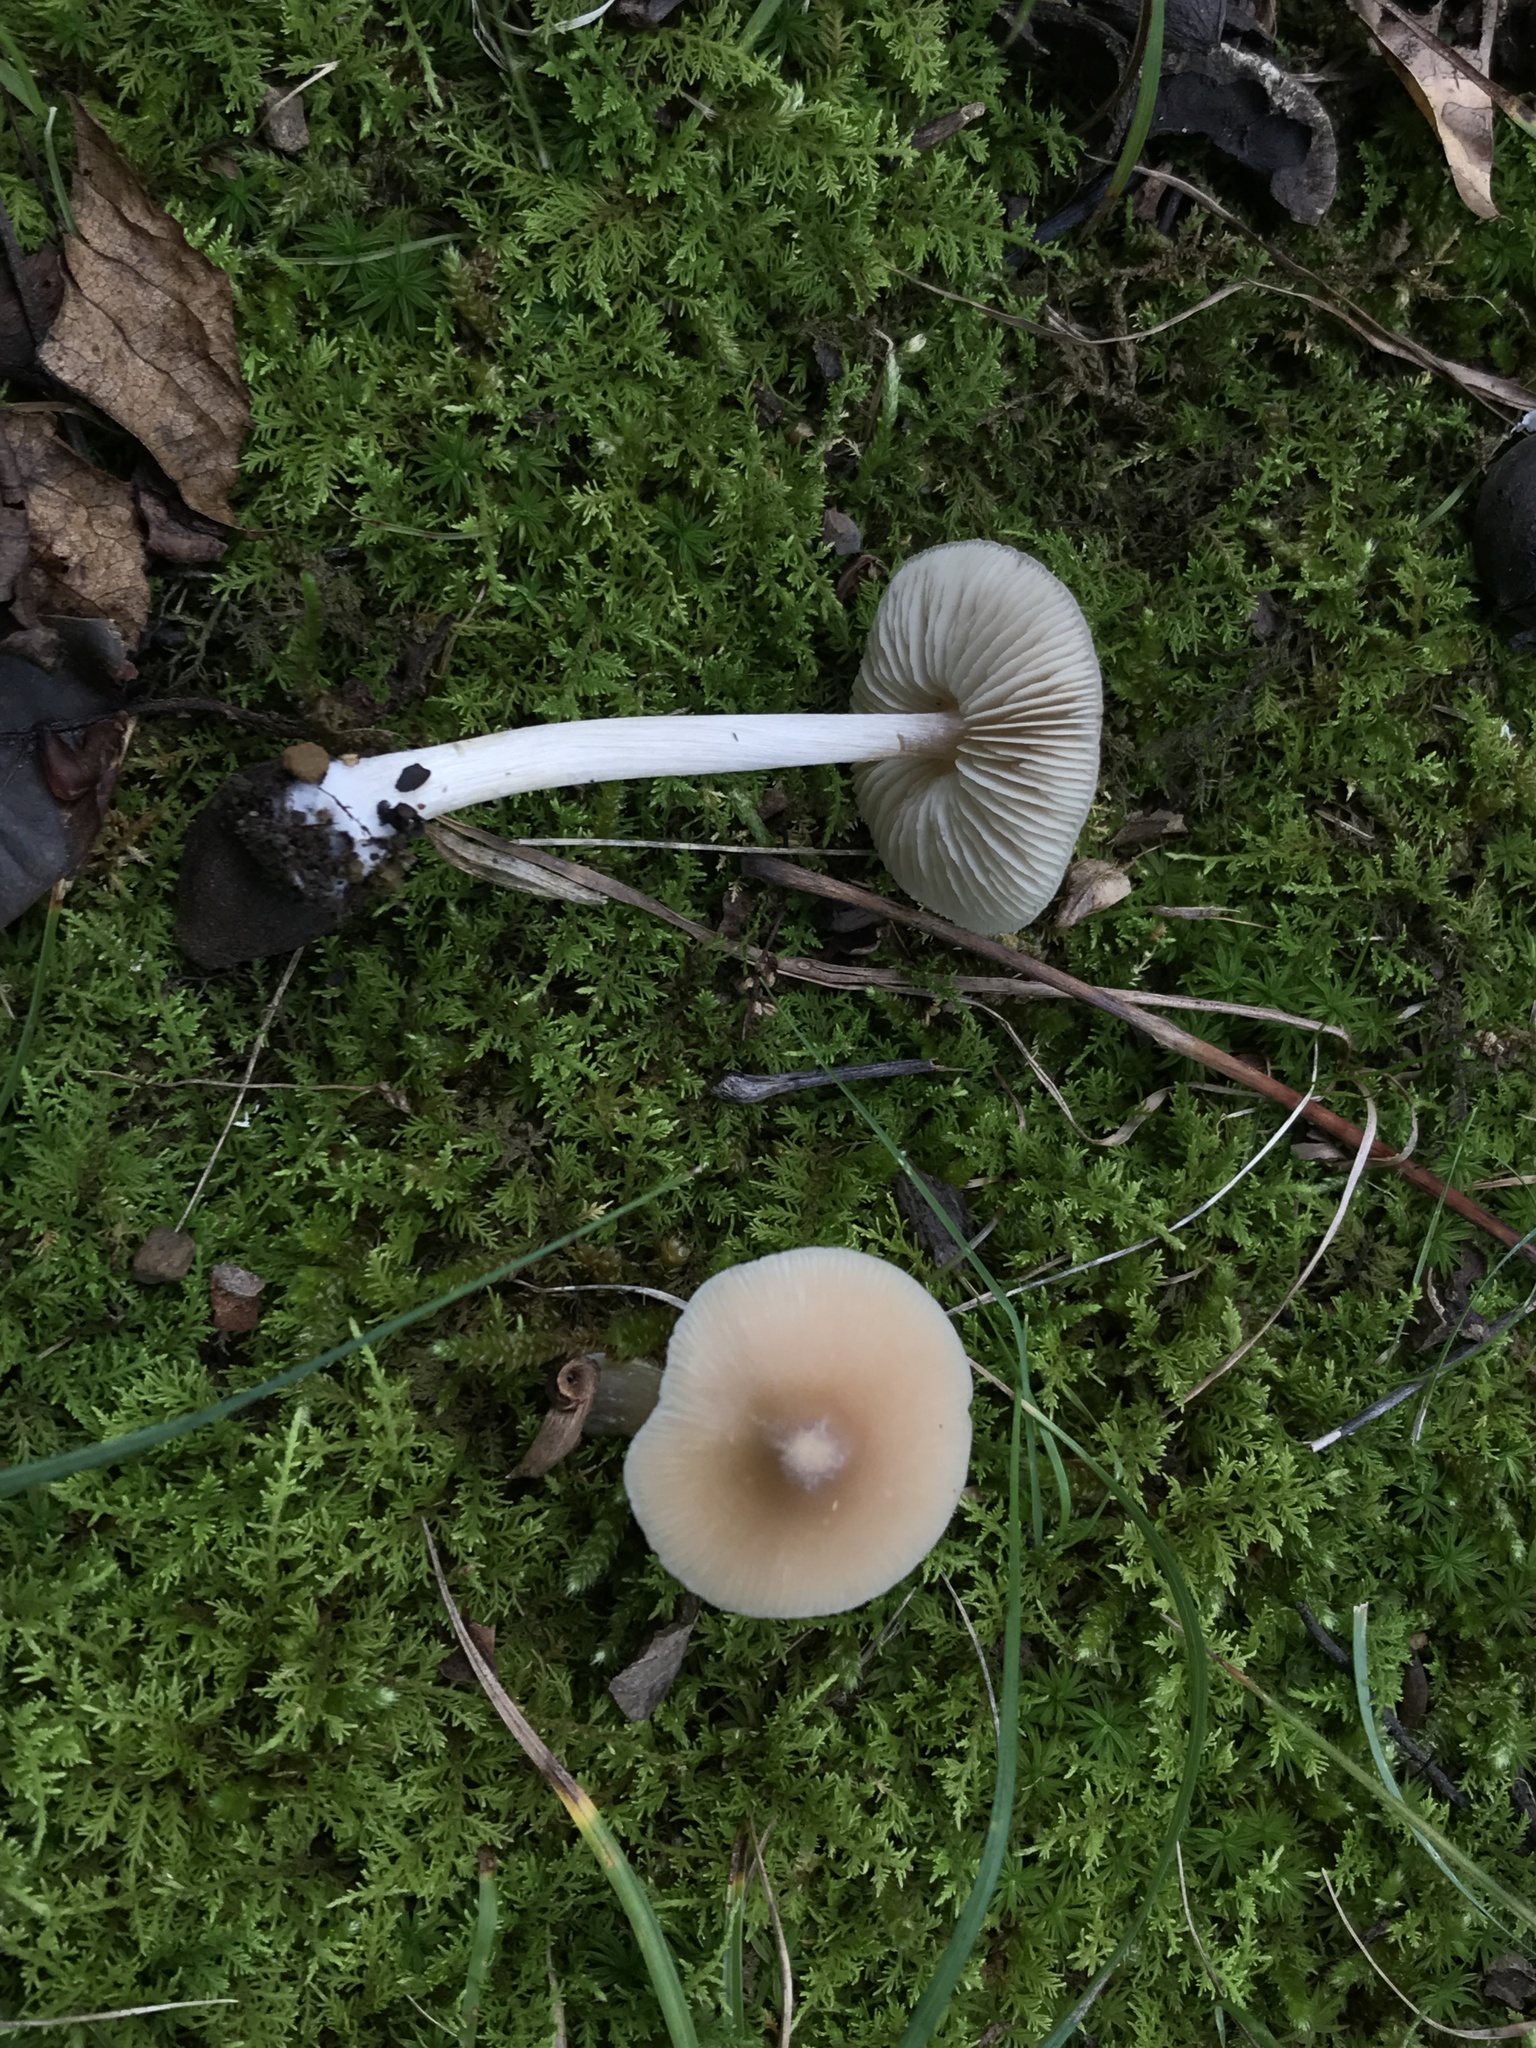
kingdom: Fungi
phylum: Basidiomycota
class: Agaricomycetes
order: Agaricales
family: Entolomataceae
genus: Entoloma
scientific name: Entoloma strictius
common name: Straight-stalked entoloma
